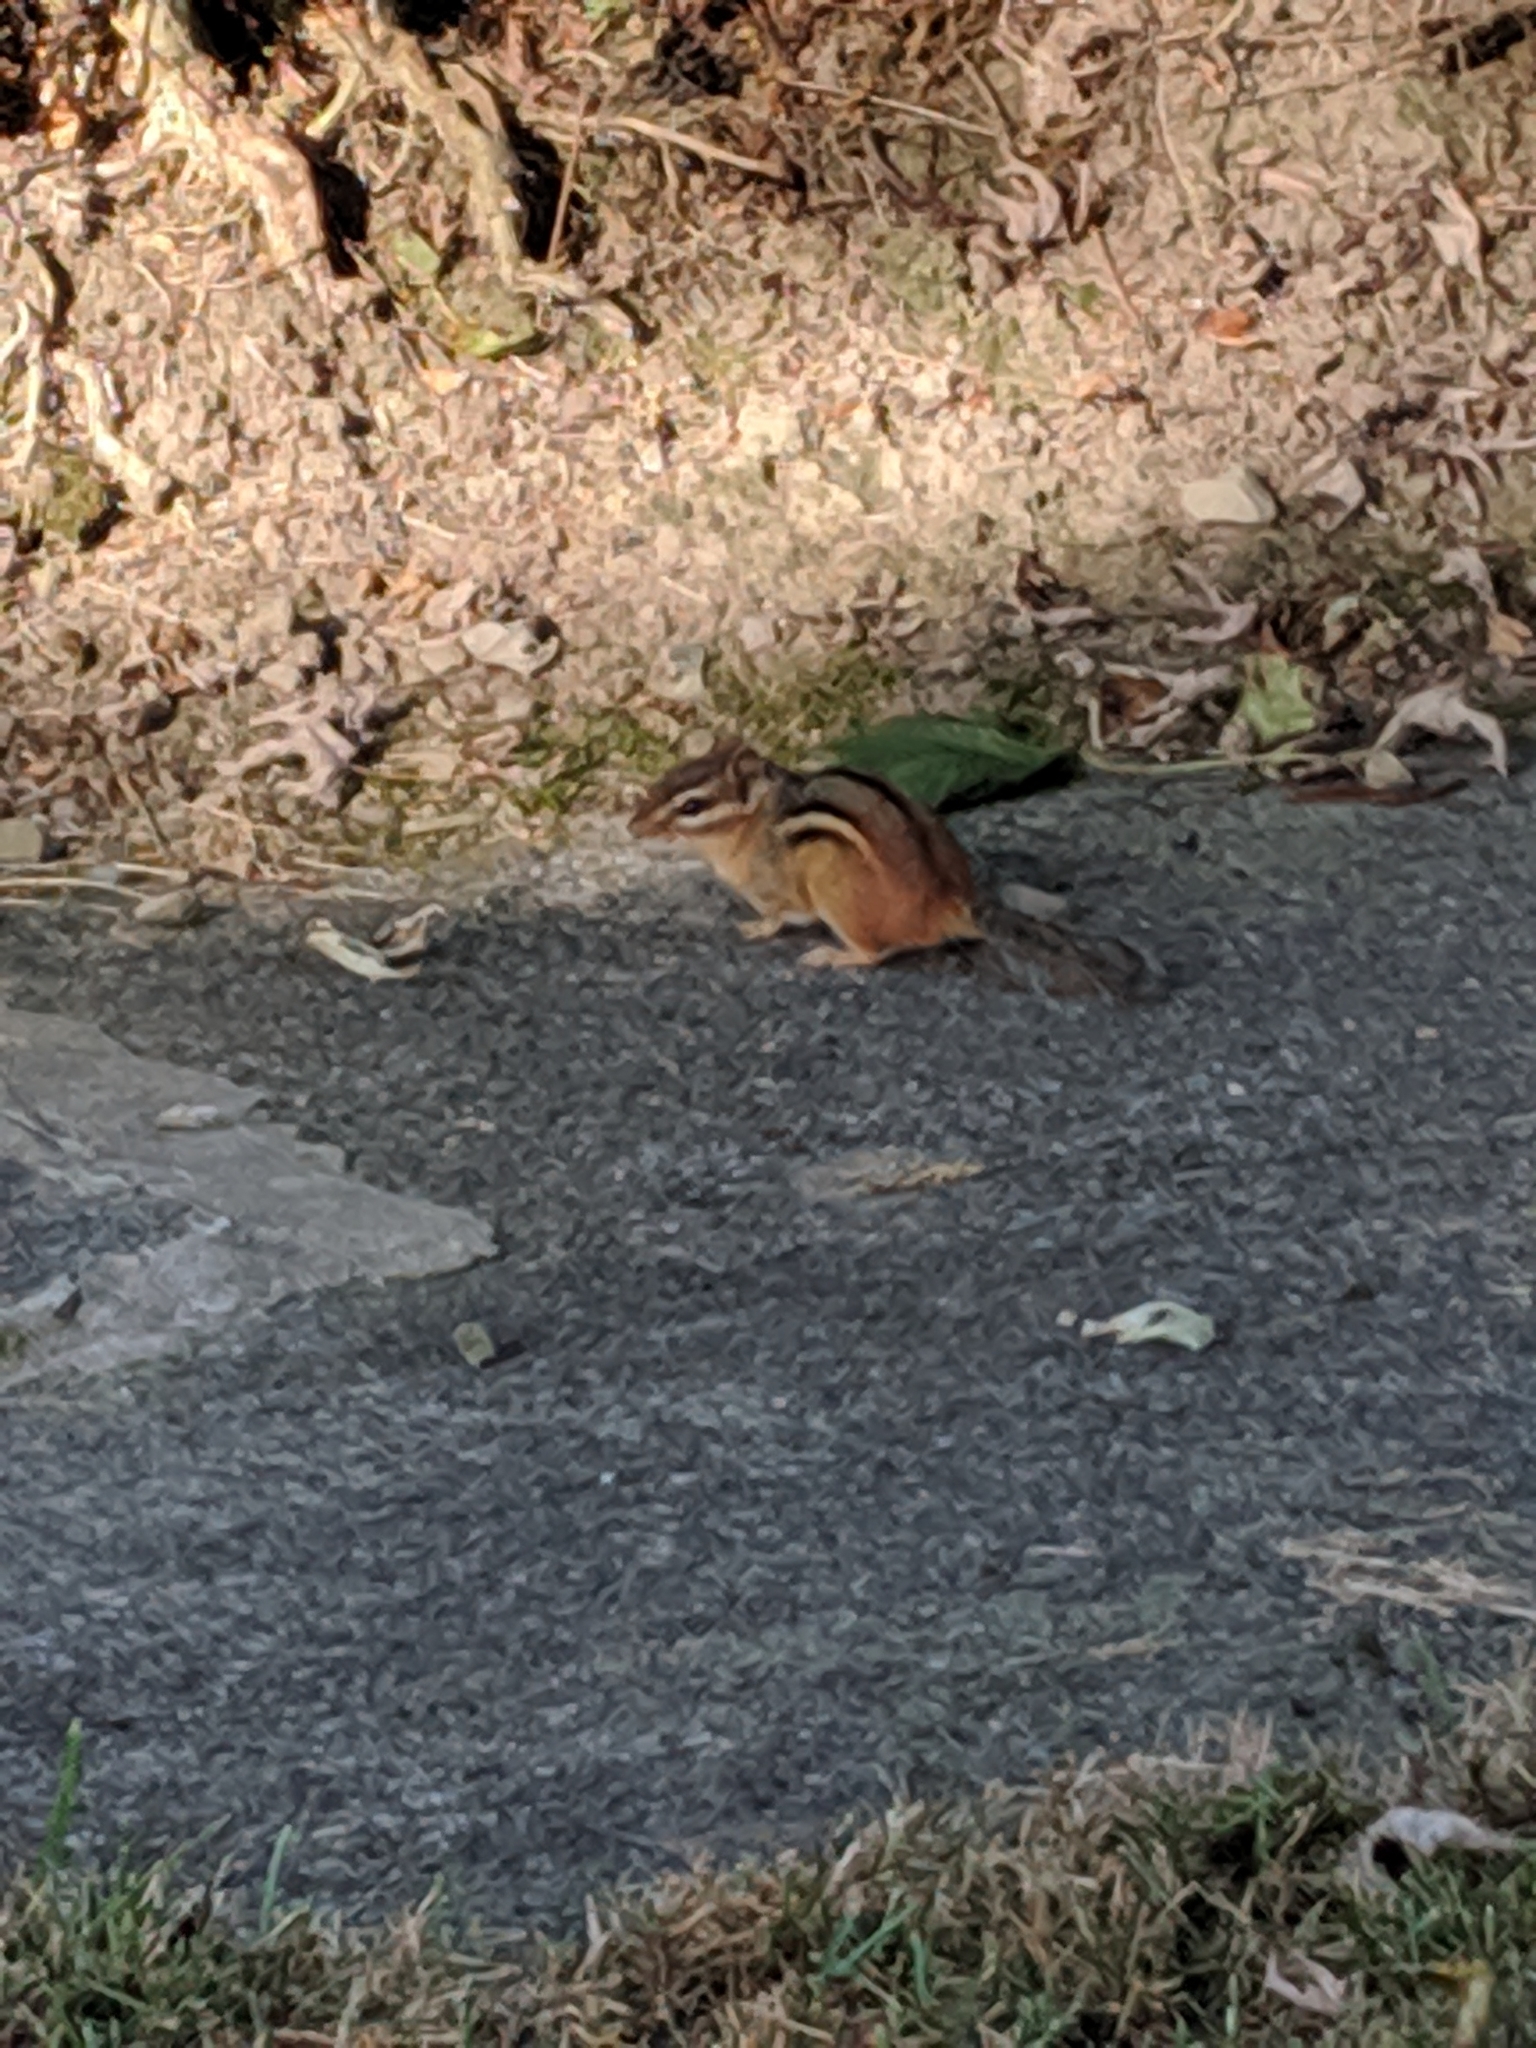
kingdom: Animalia
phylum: Chordata
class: Mammalia
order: Rodentia
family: Sciuridae
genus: Tamias
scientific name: Tamias striatus
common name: Eastern chipmunk
